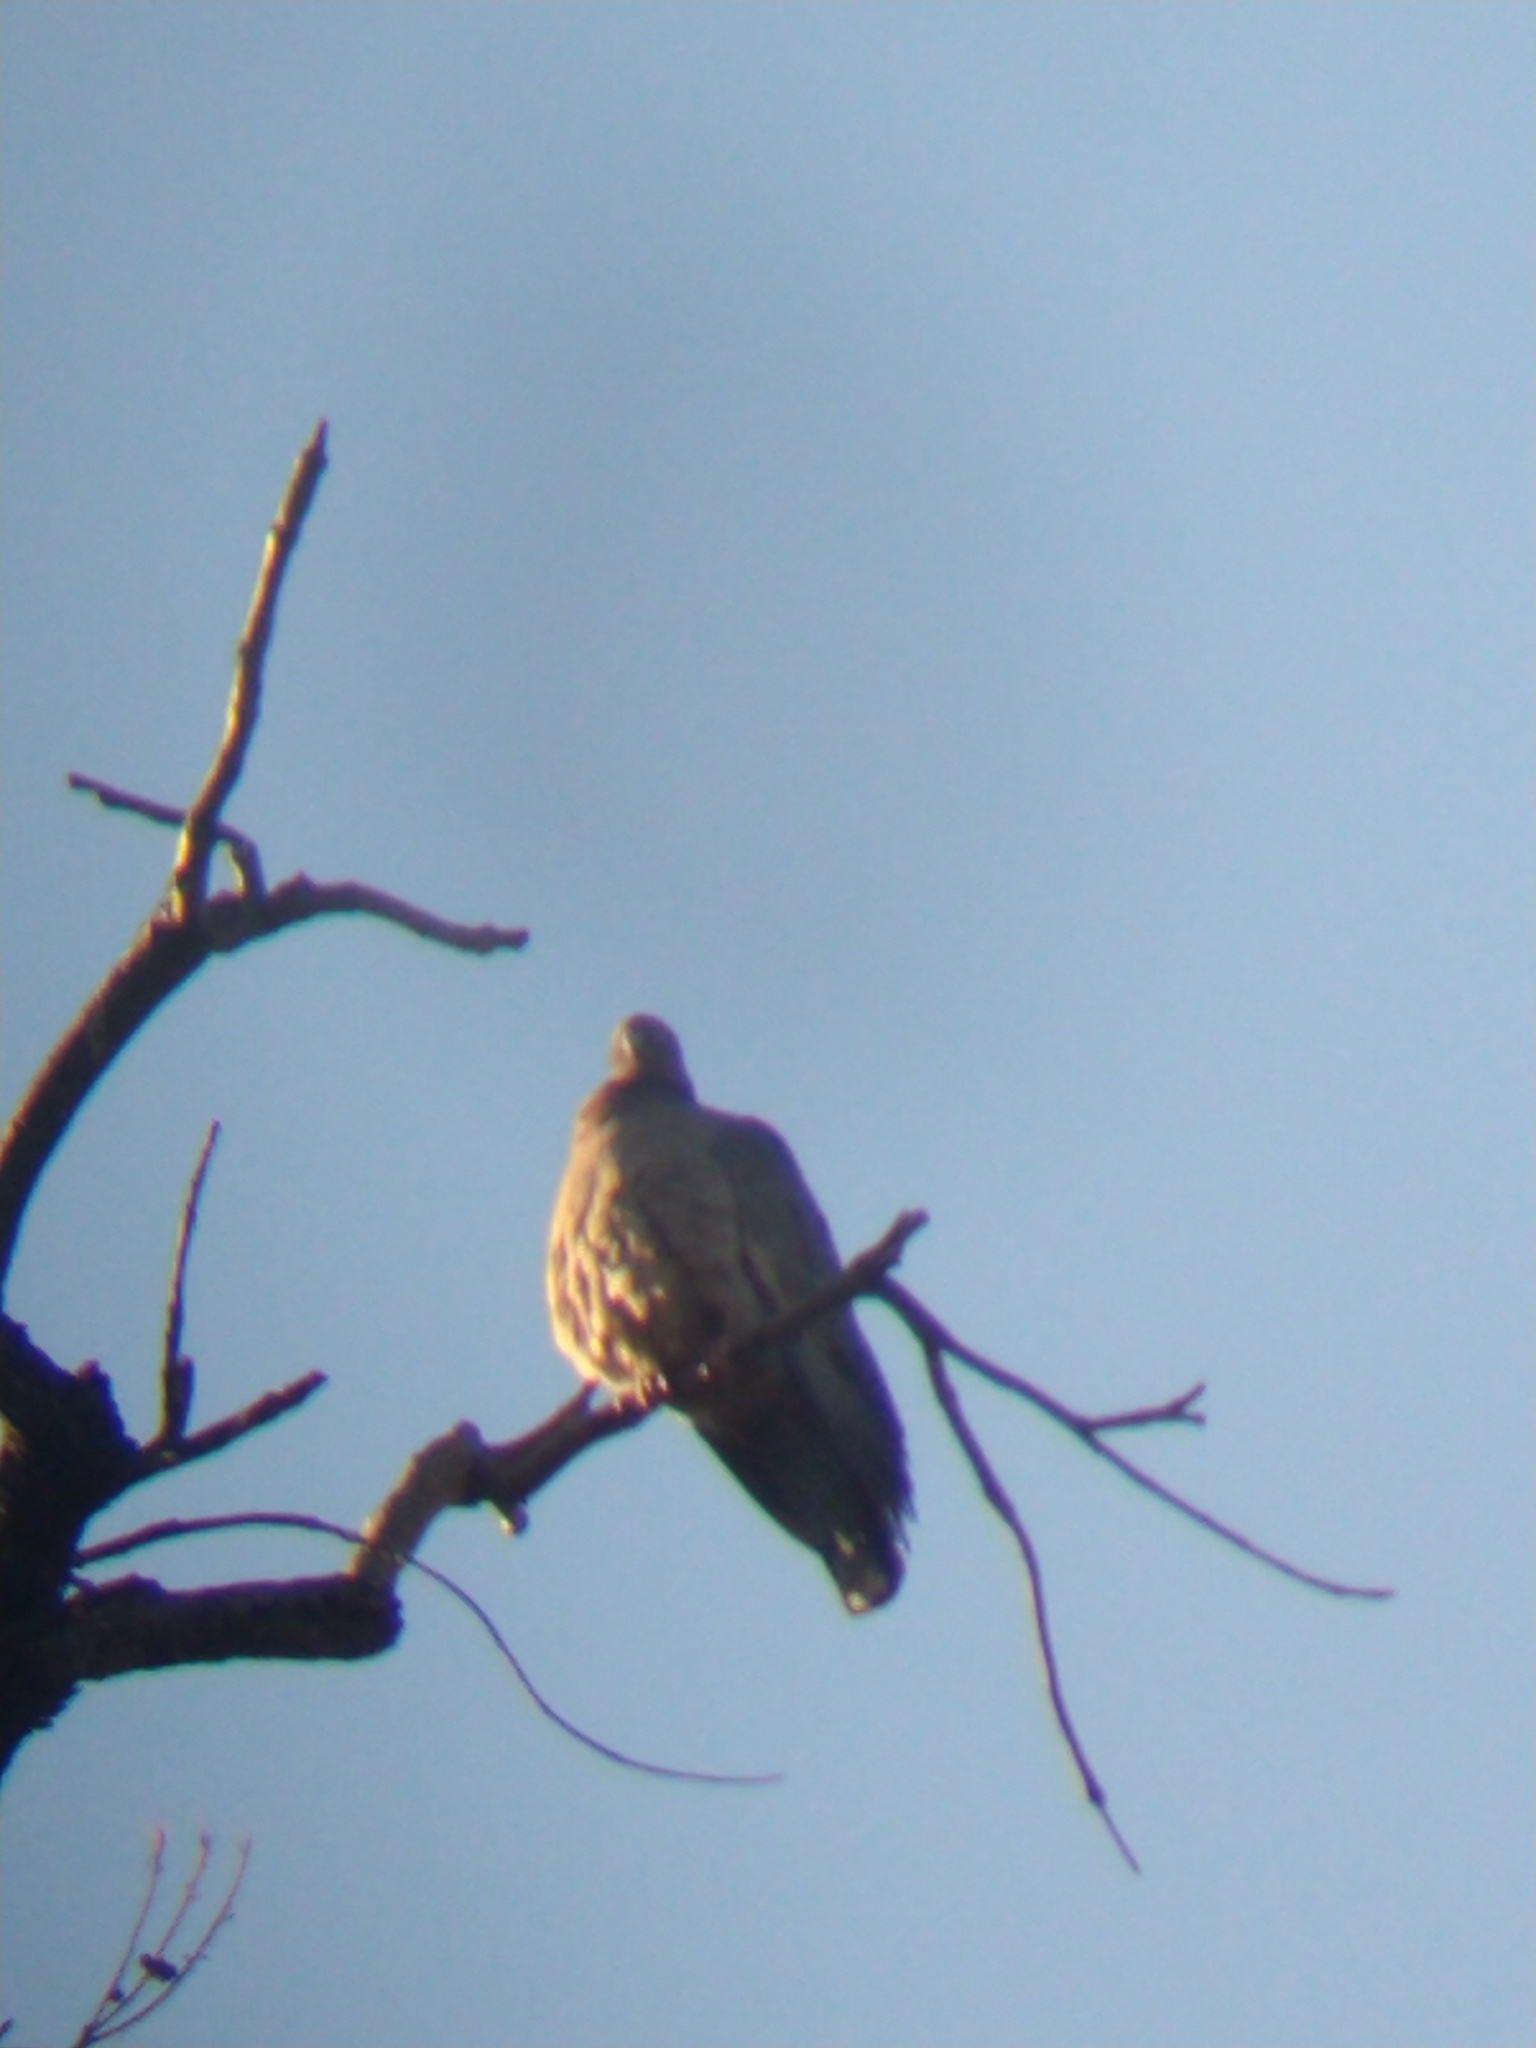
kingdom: Animalia
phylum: Chordata
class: Aves
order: Columbiformes
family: Columbidae
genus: Patagioenas
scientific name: Patagioenas picazuro
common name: Picazuro pigeon
